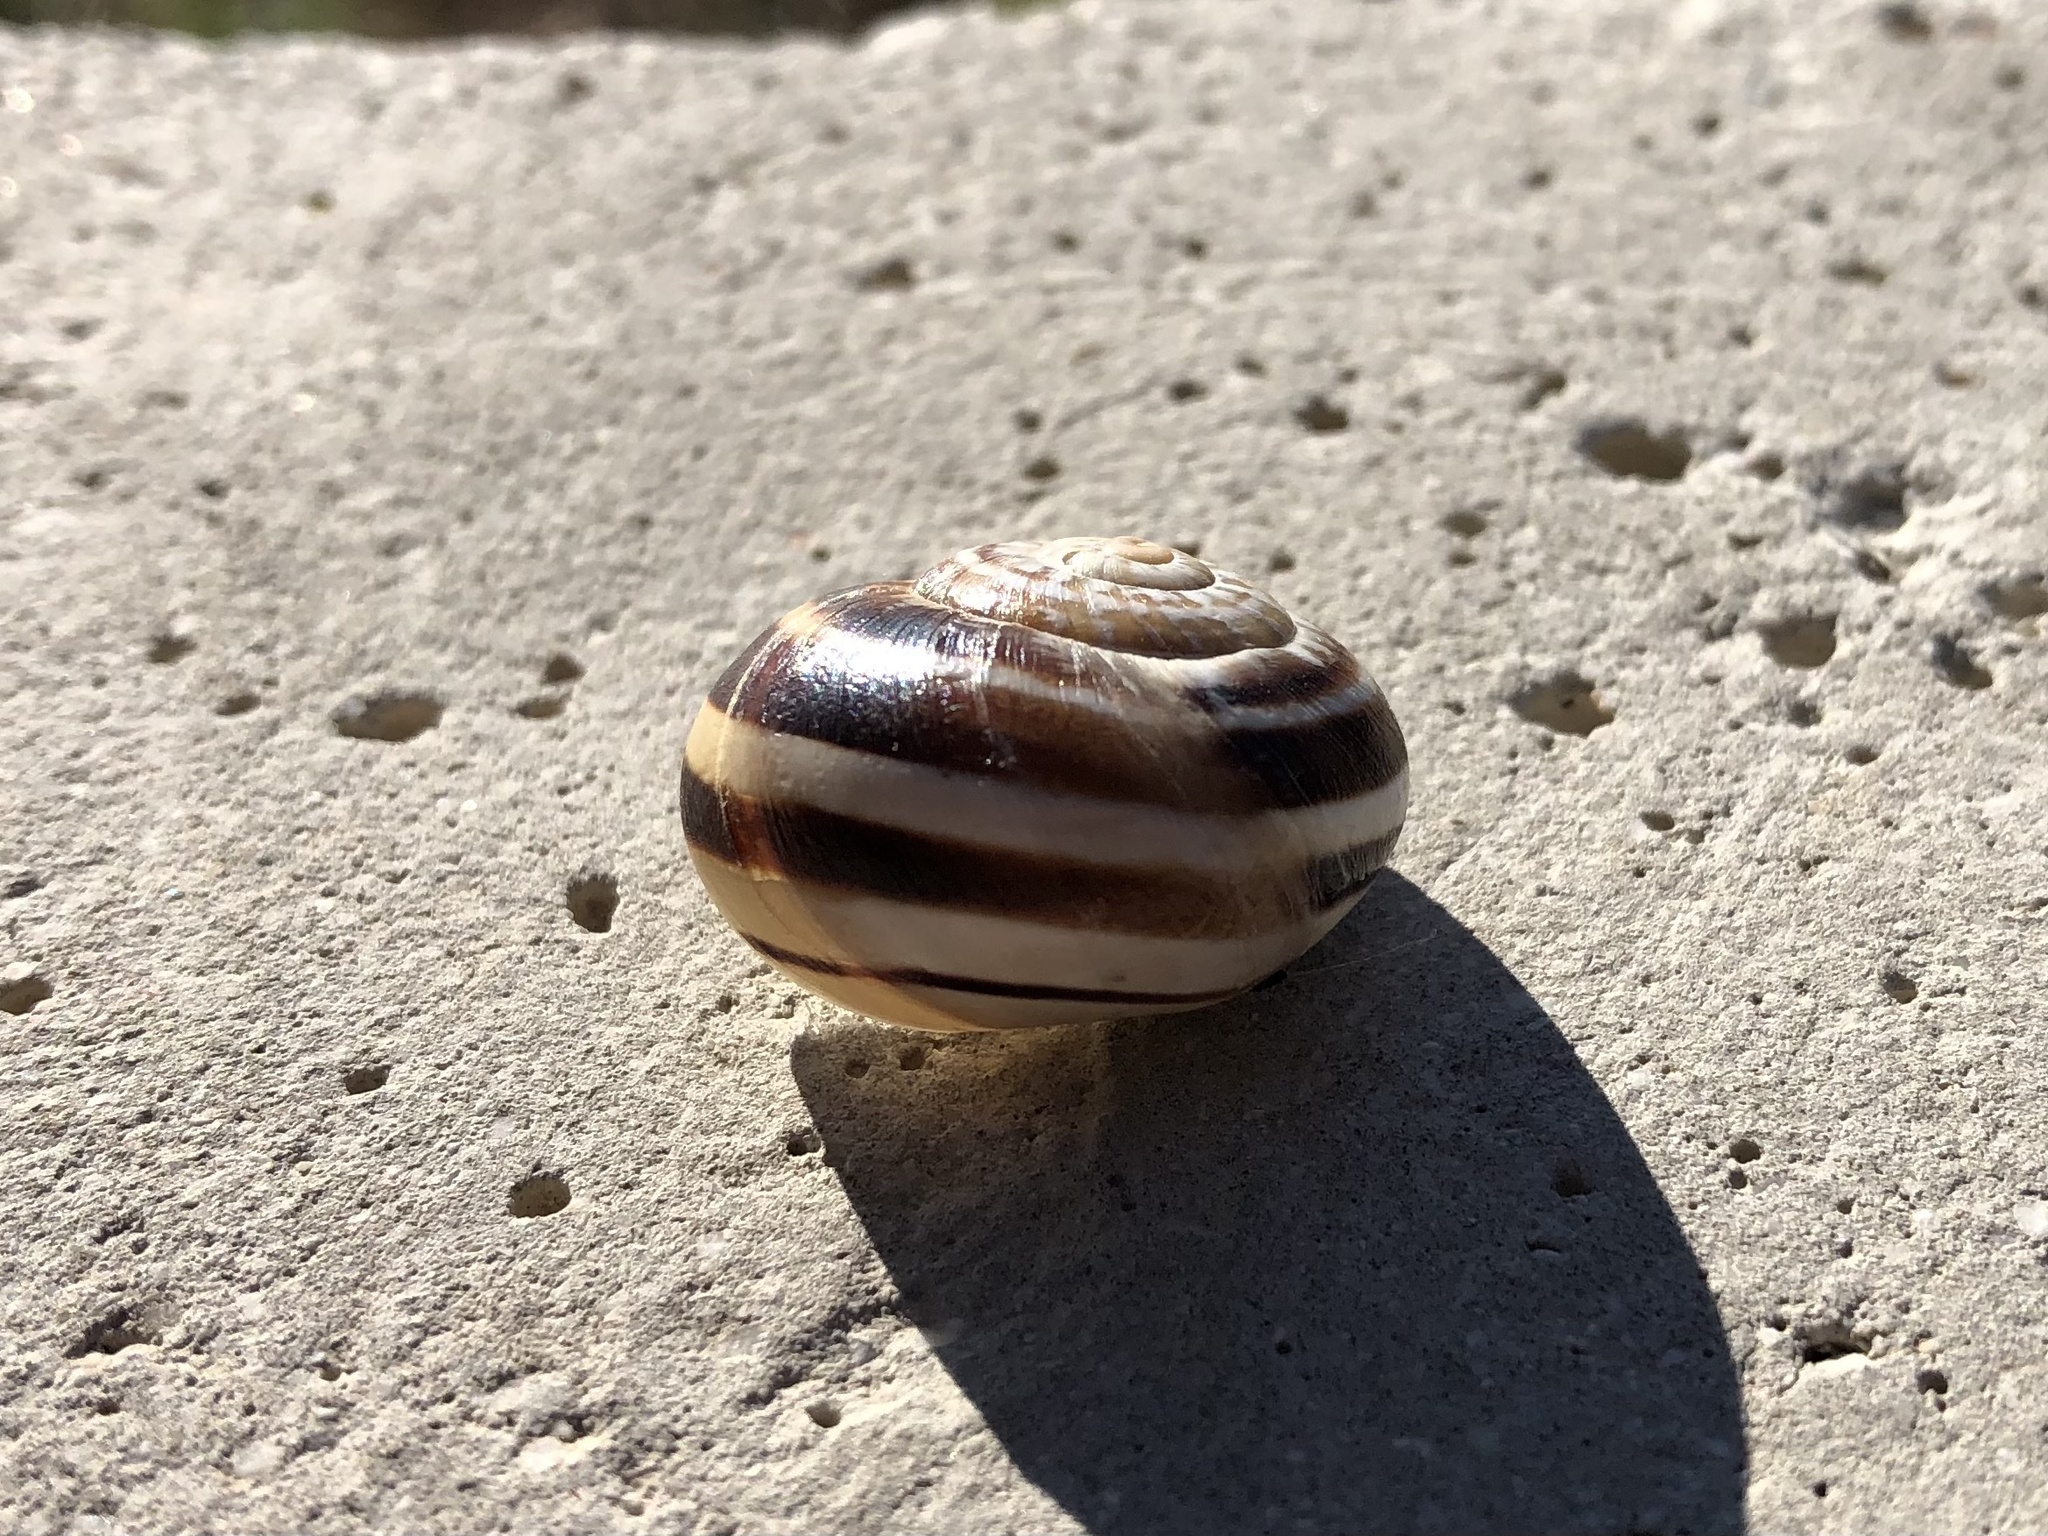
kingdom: Animalia
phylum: Mollusca
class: Gastropoda
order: Stylommatophora
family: Helicidae
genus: Eobania
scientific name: Eobania vermiculata
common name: Chocolateband snail
